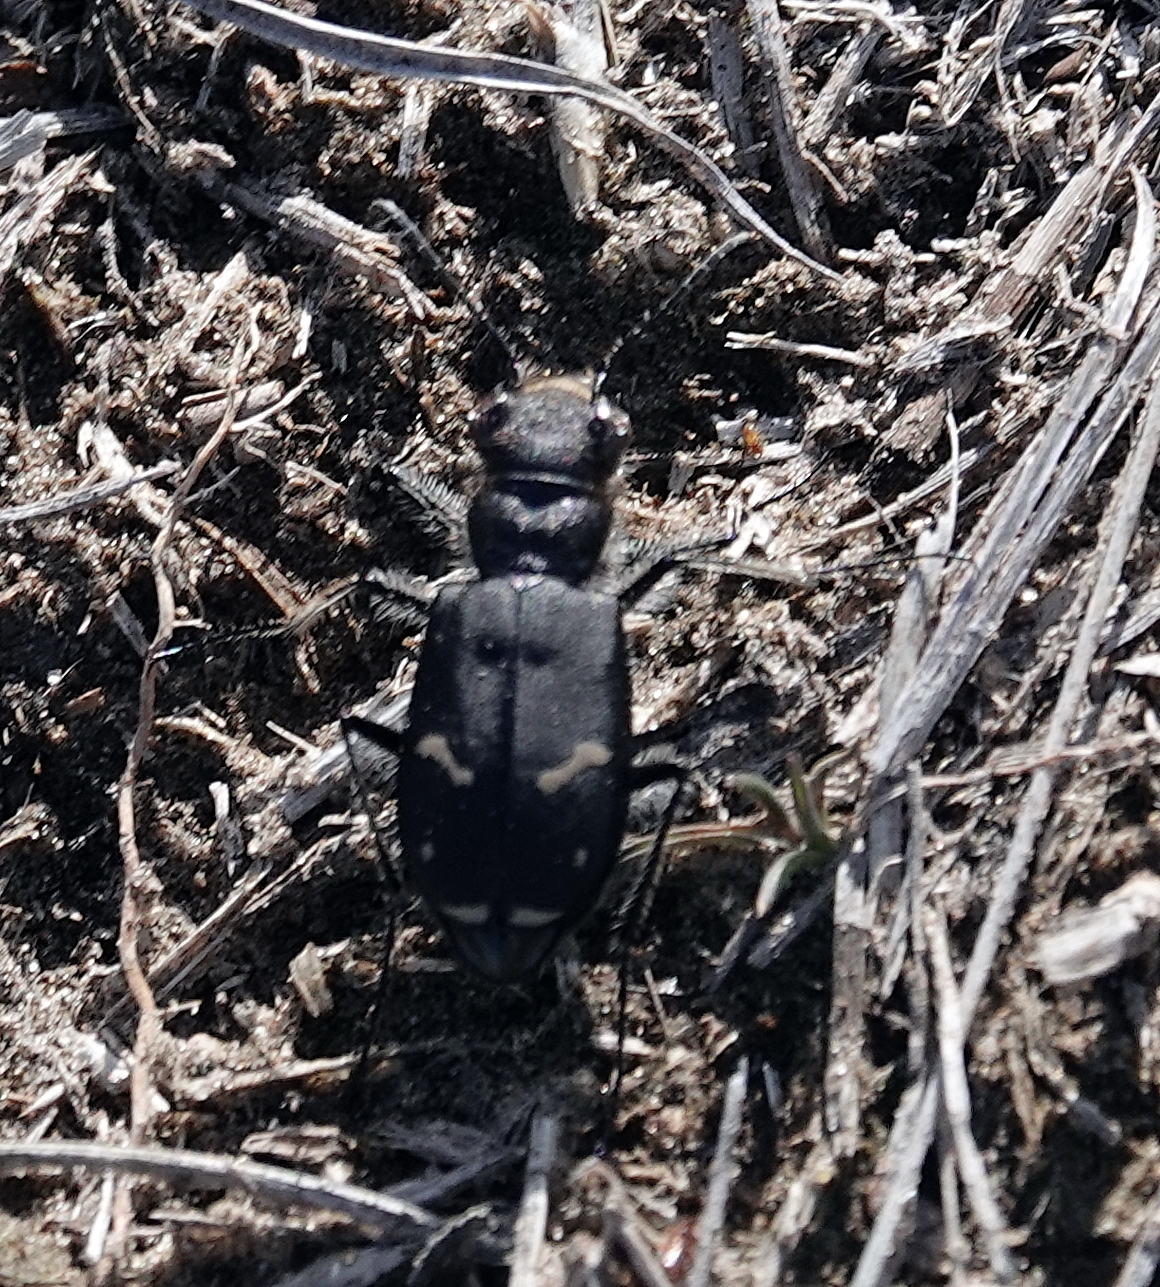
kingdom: Animalia
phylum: Arthropoda
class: Insecta
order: Coleoptera
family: Carabidae
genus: Cicindela
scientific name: Cicindela purpurea
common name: Cow path tiger beetle
